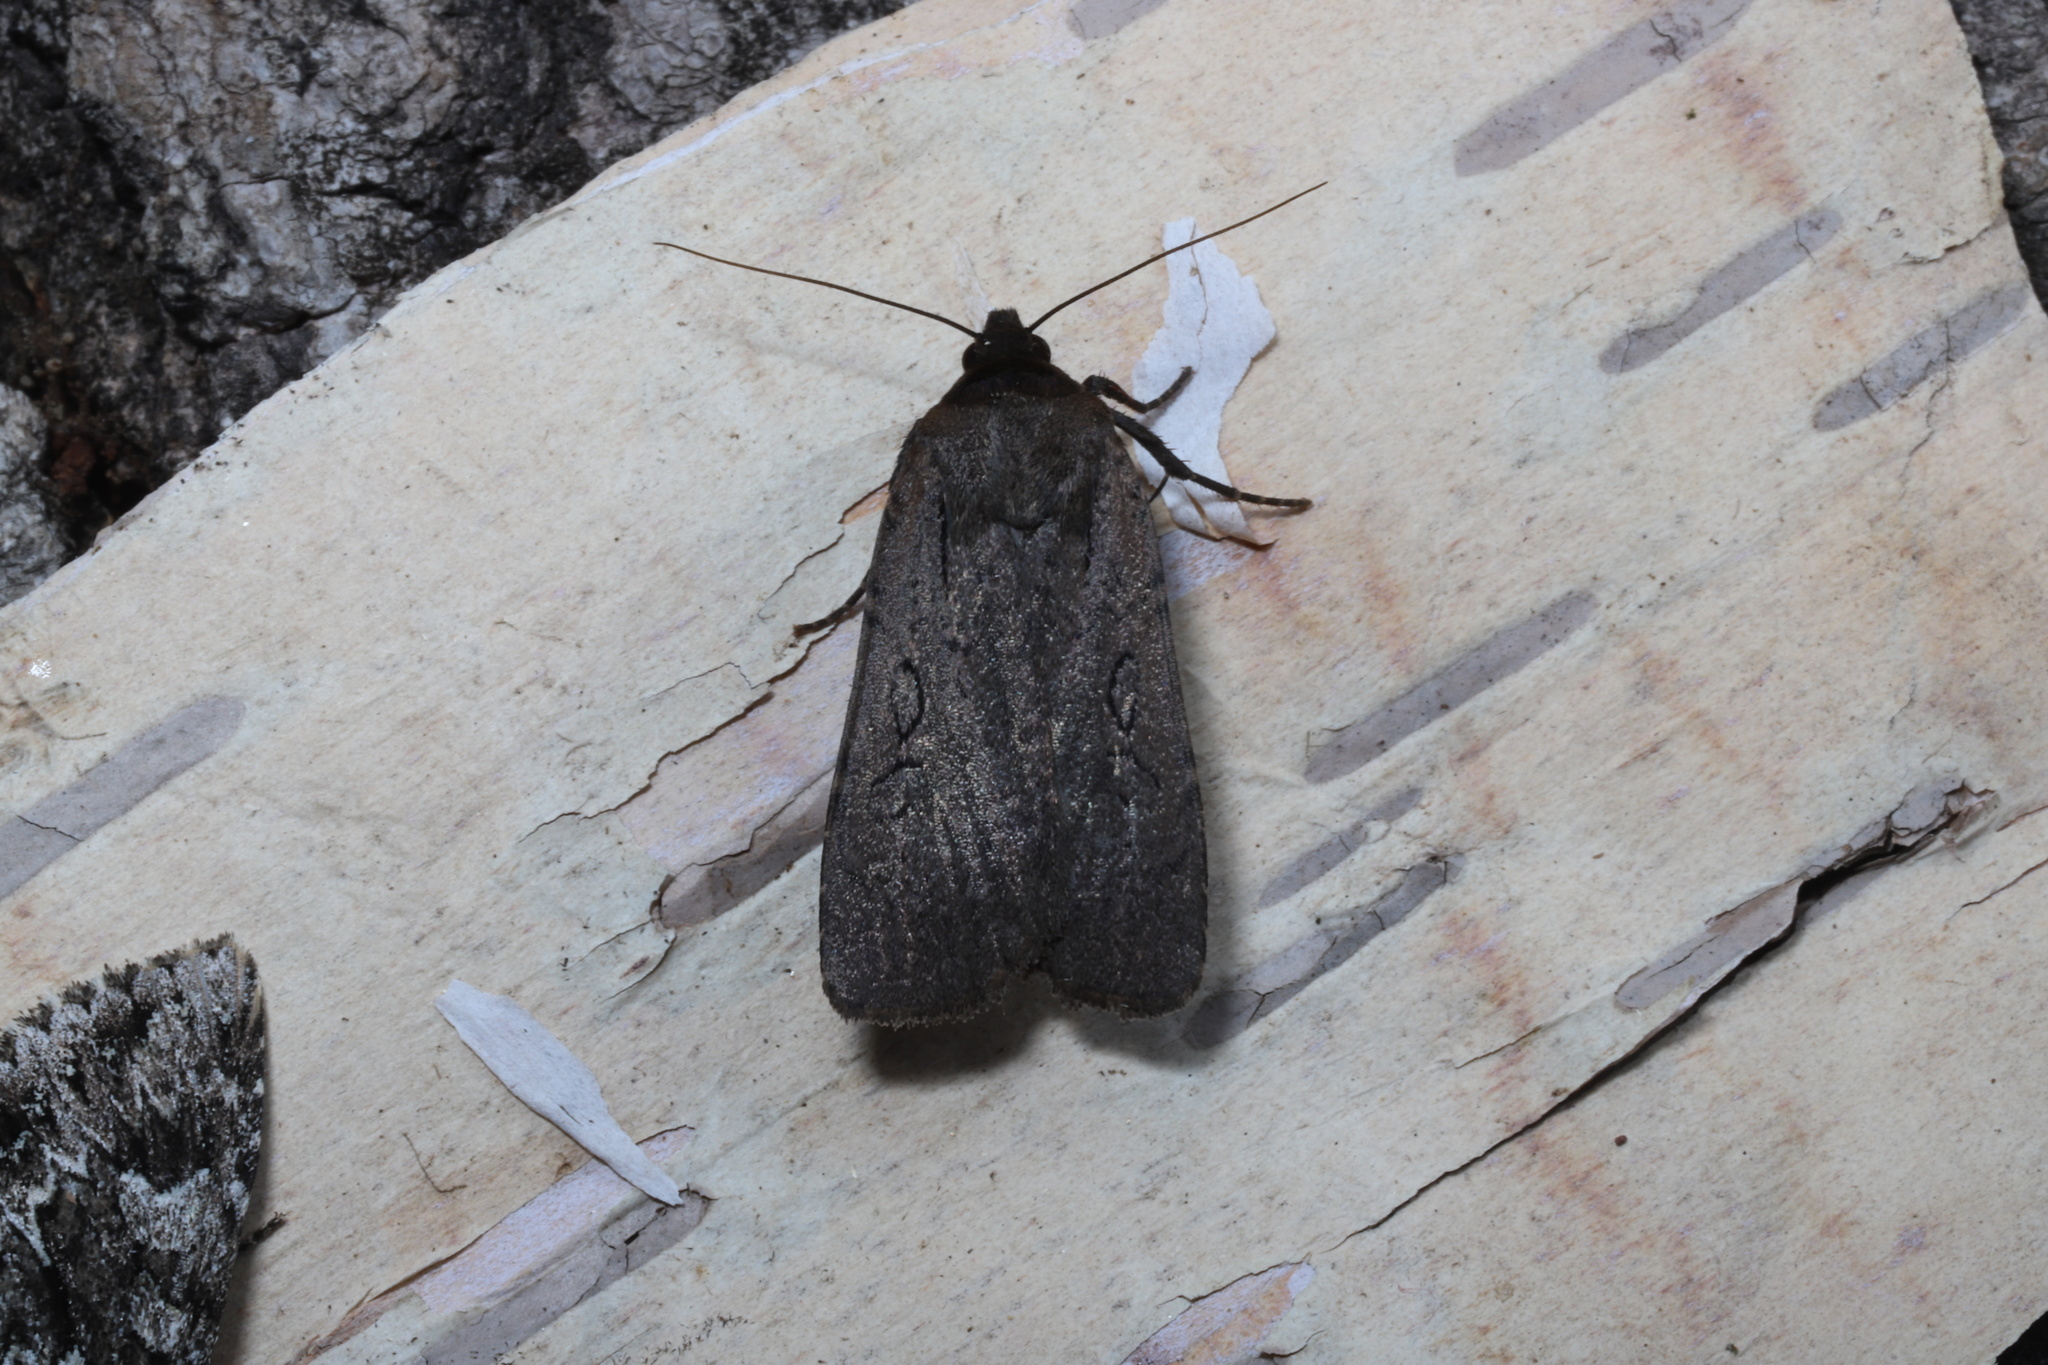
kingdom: Animalia
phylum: Arthropoda
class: Insecta
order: Lepidoptera
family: Noctuidae
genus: Spaelotis
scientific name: Spaelotis clandestina
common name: Clandestine dart
